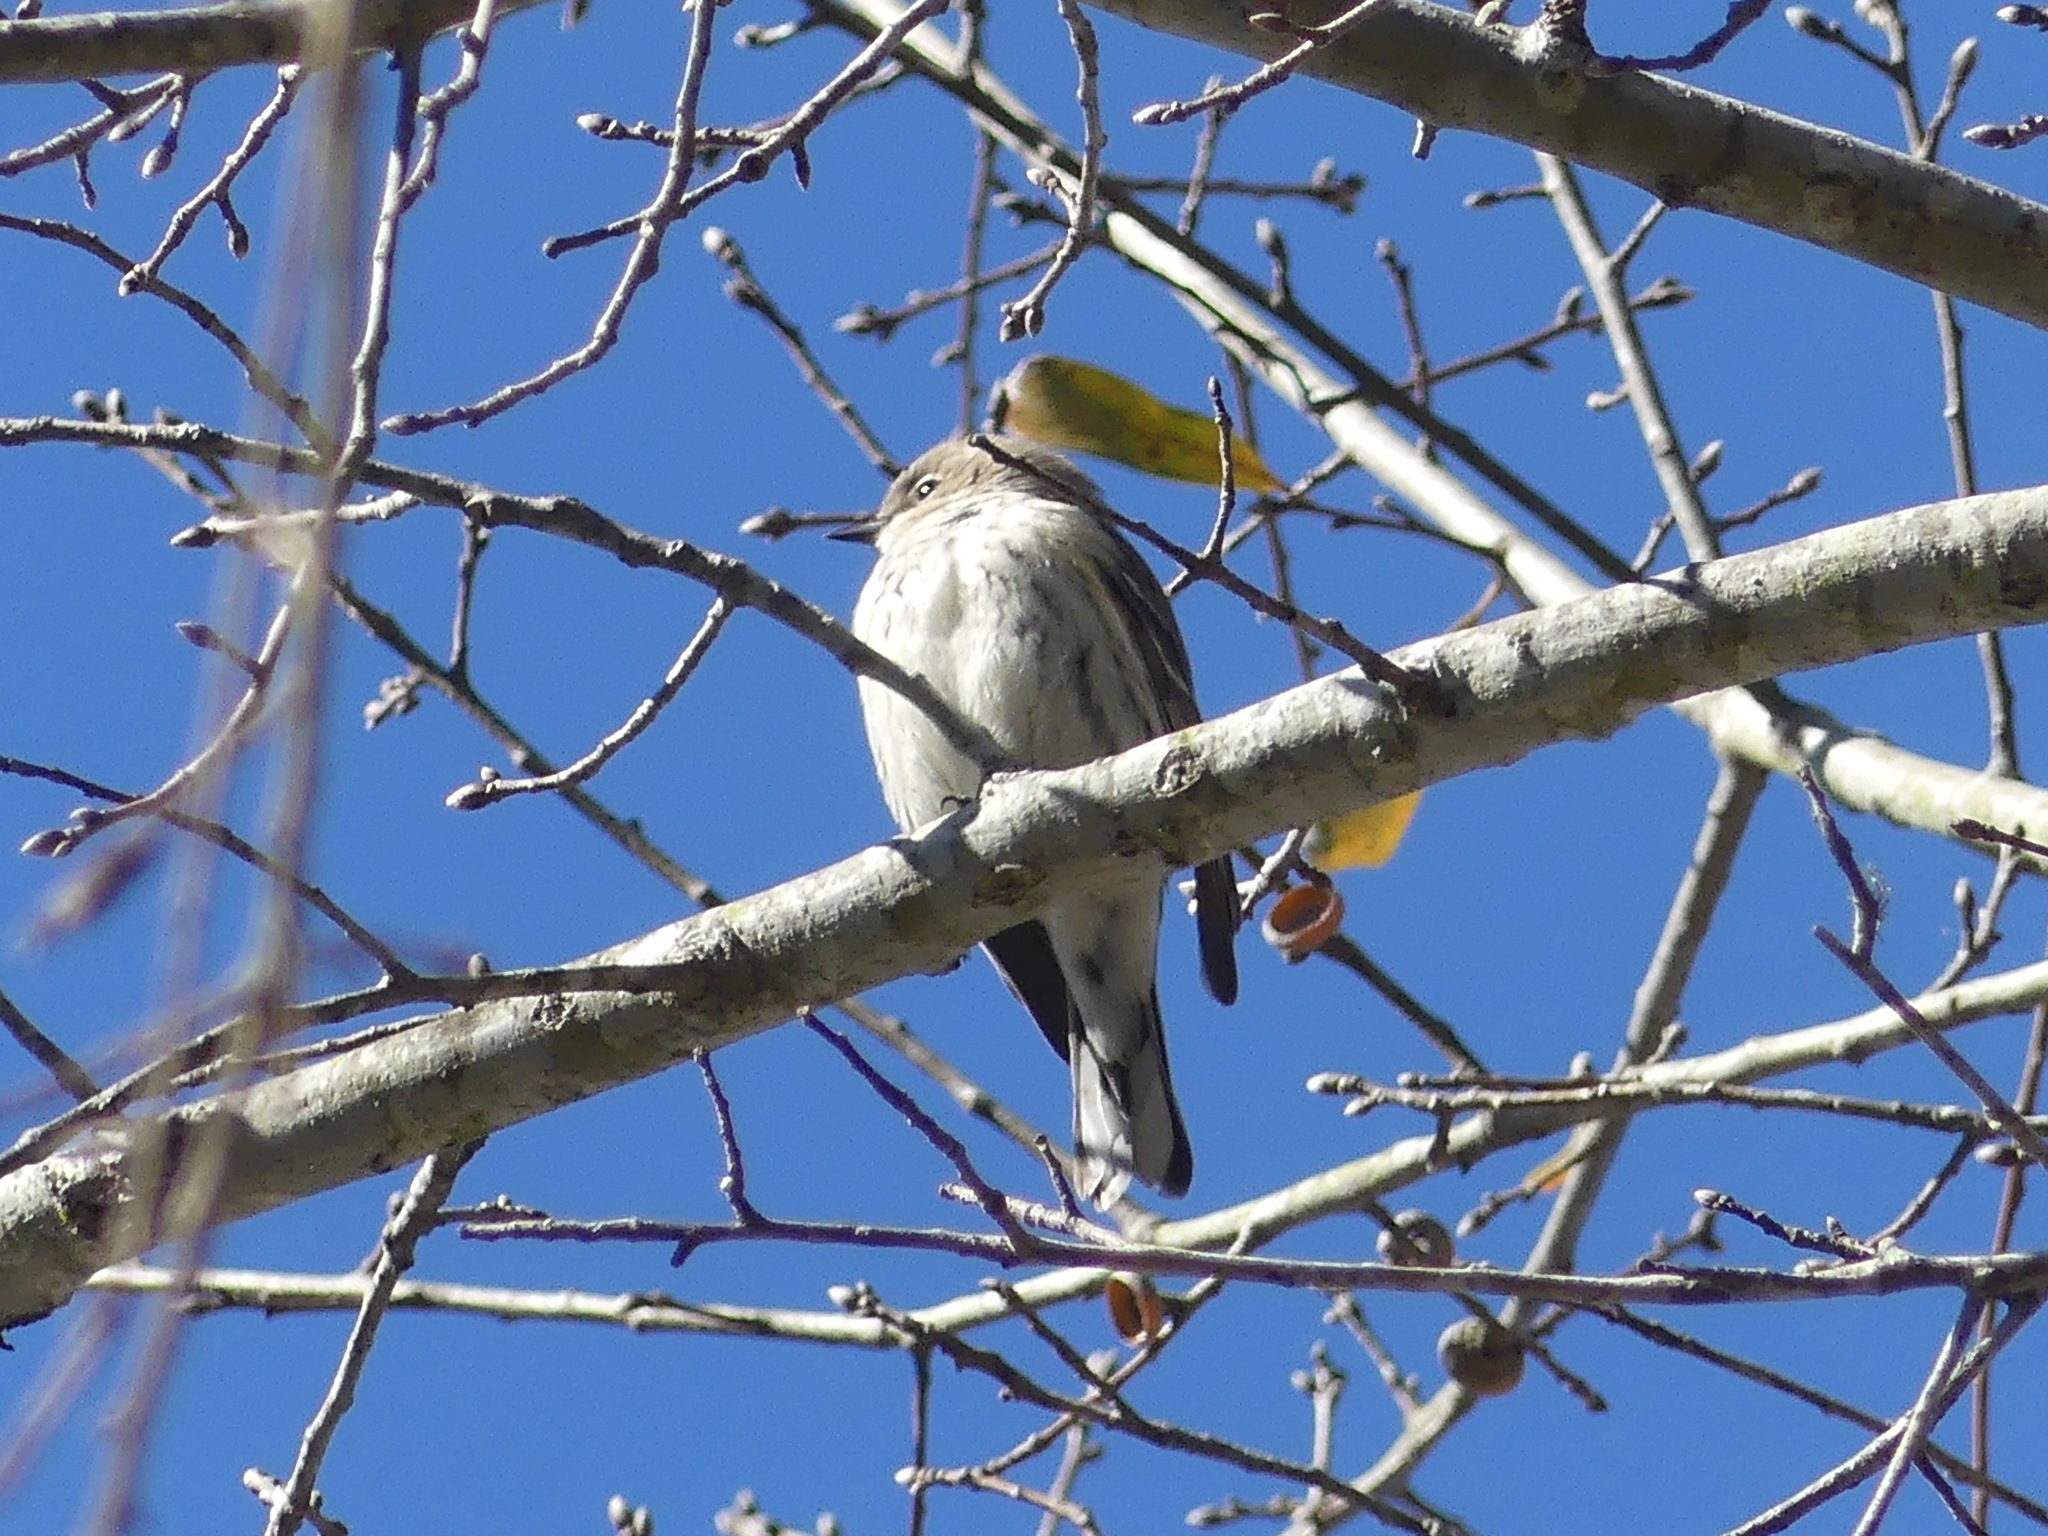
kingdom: Animalia
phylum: Chordata
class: Aves
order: Passeriformes
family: Parulidae
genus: Setophaga
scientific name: Setophaga coronata
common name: Myrtle warbler
